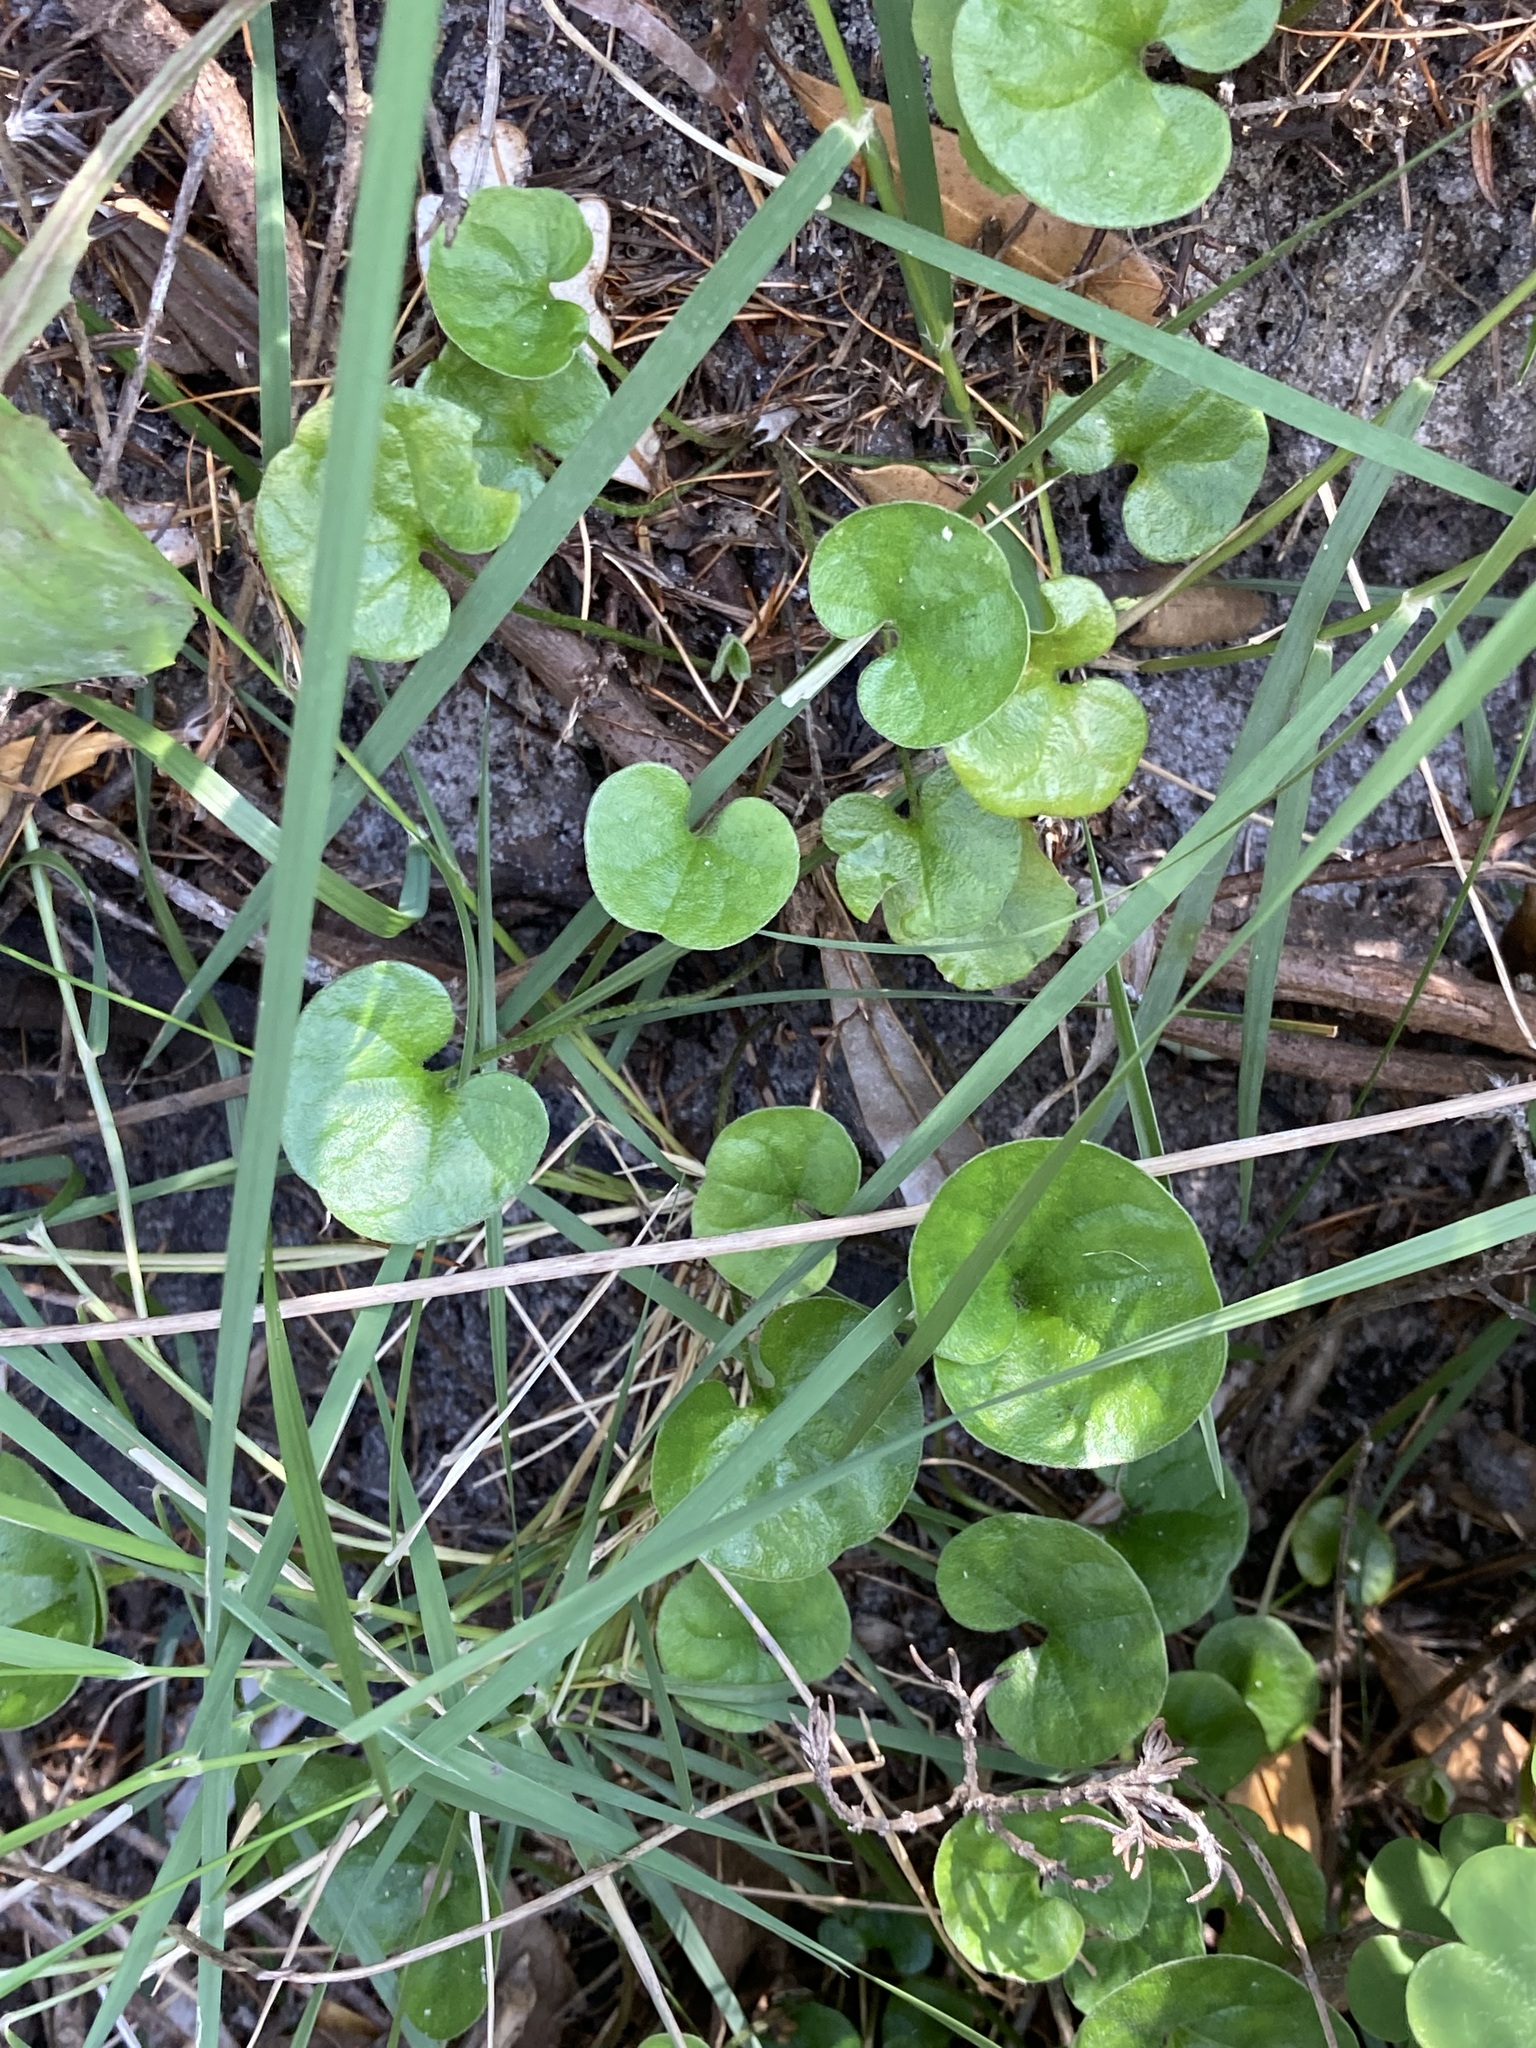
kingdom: Plantae
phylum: Tracheophyta
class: Magnoliopsida
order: Solanales
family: Convolvulaceae
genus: Dichondra
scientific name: Dichondra repens
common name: Kidneyweed
